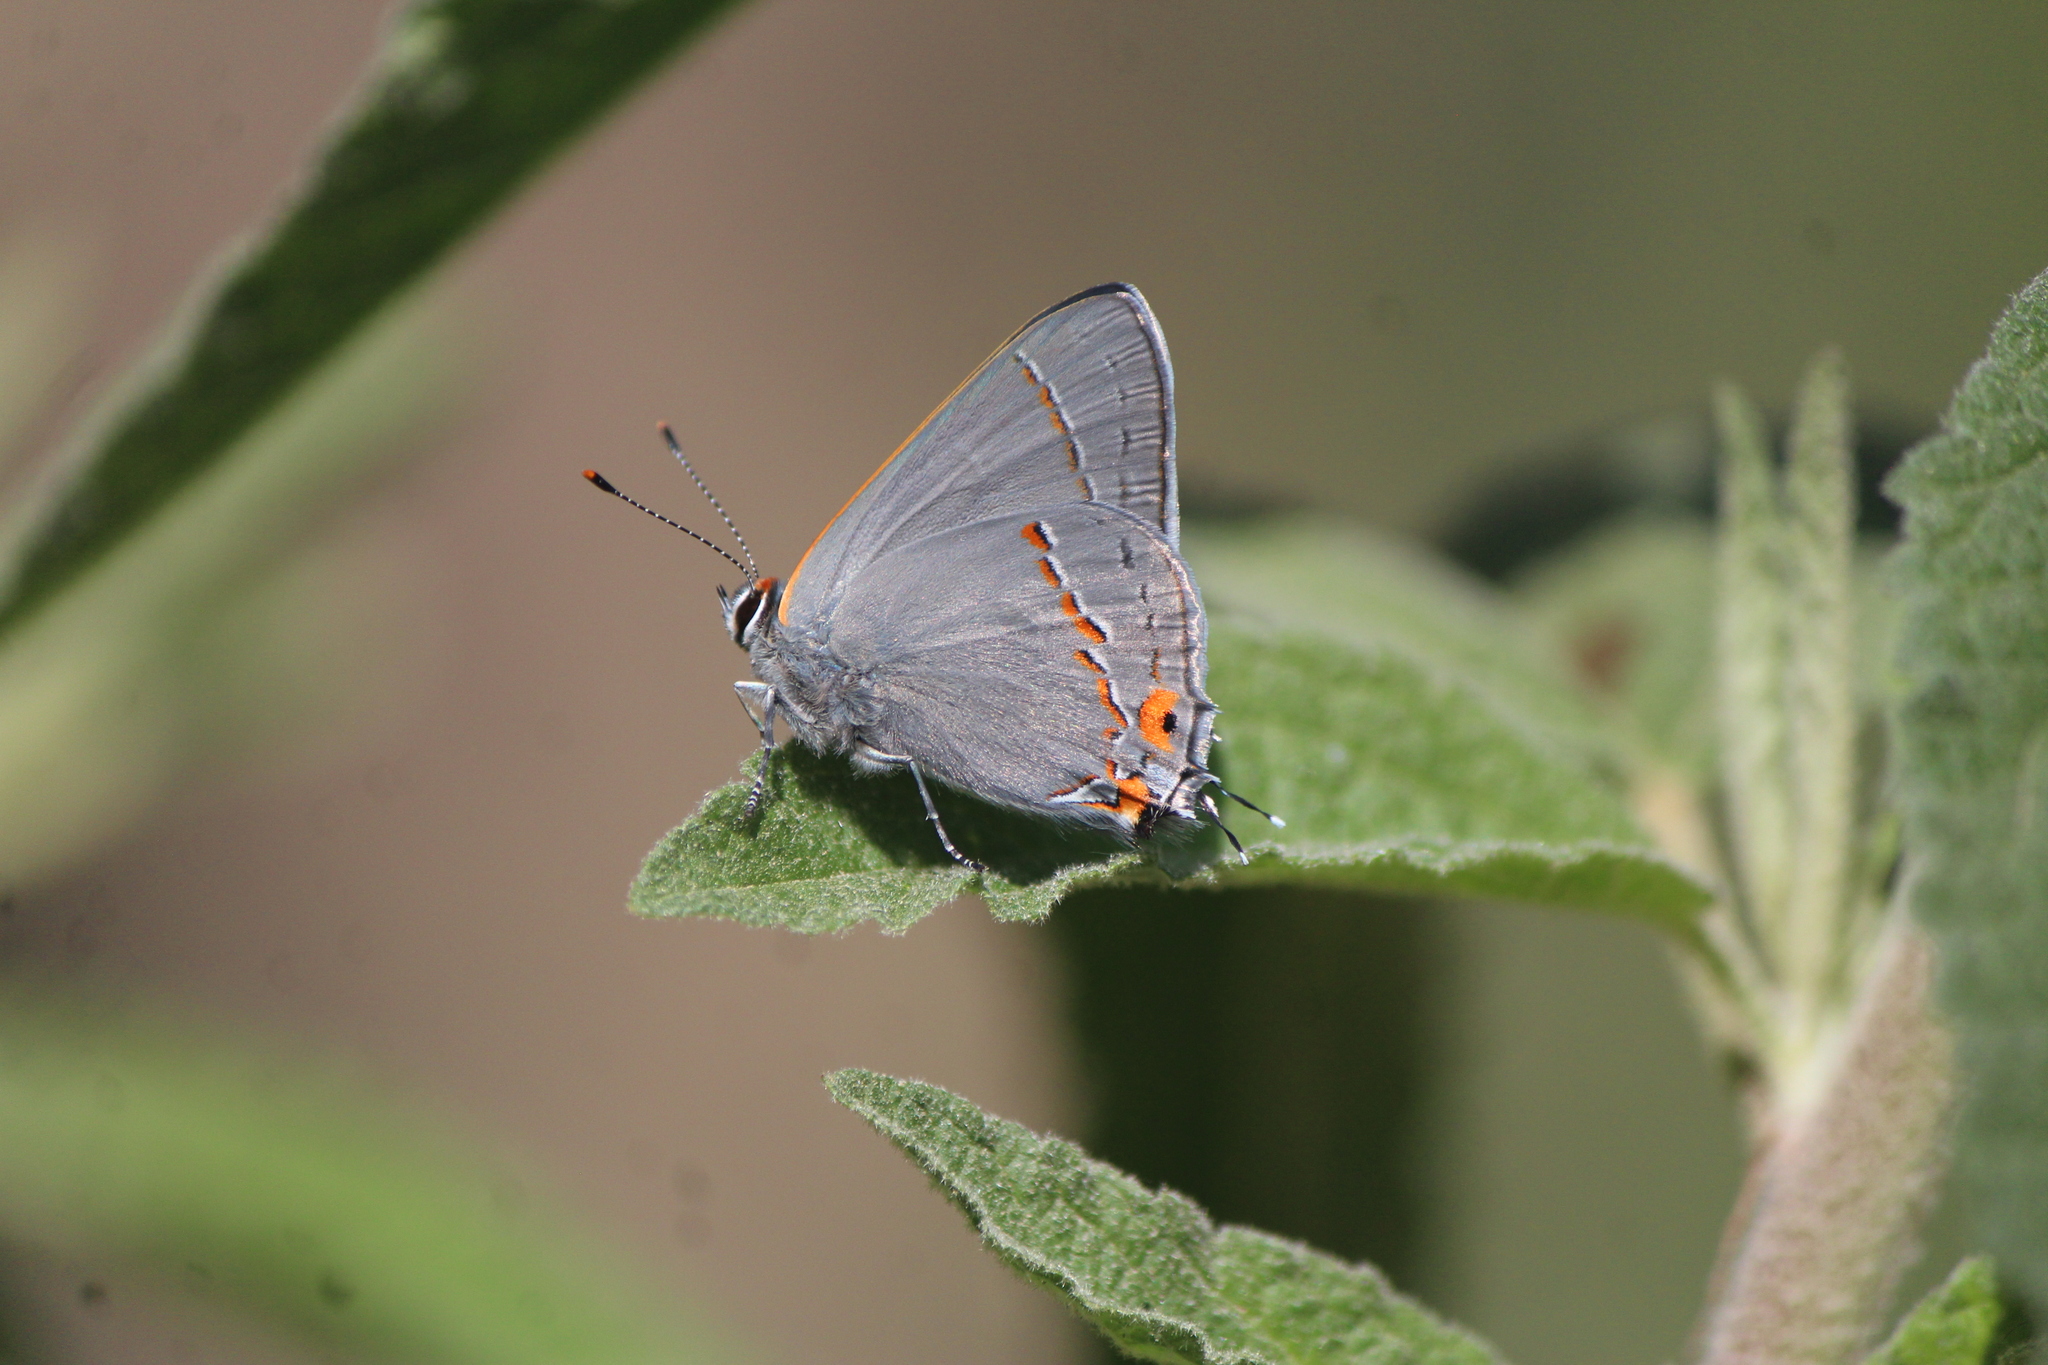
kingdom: Animalia
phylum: Arthropoda
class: Insecta
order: Lepidoptera
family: Lycaenidae
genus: Strymon
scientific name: Strymon melinus
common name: Gray hairstreak
